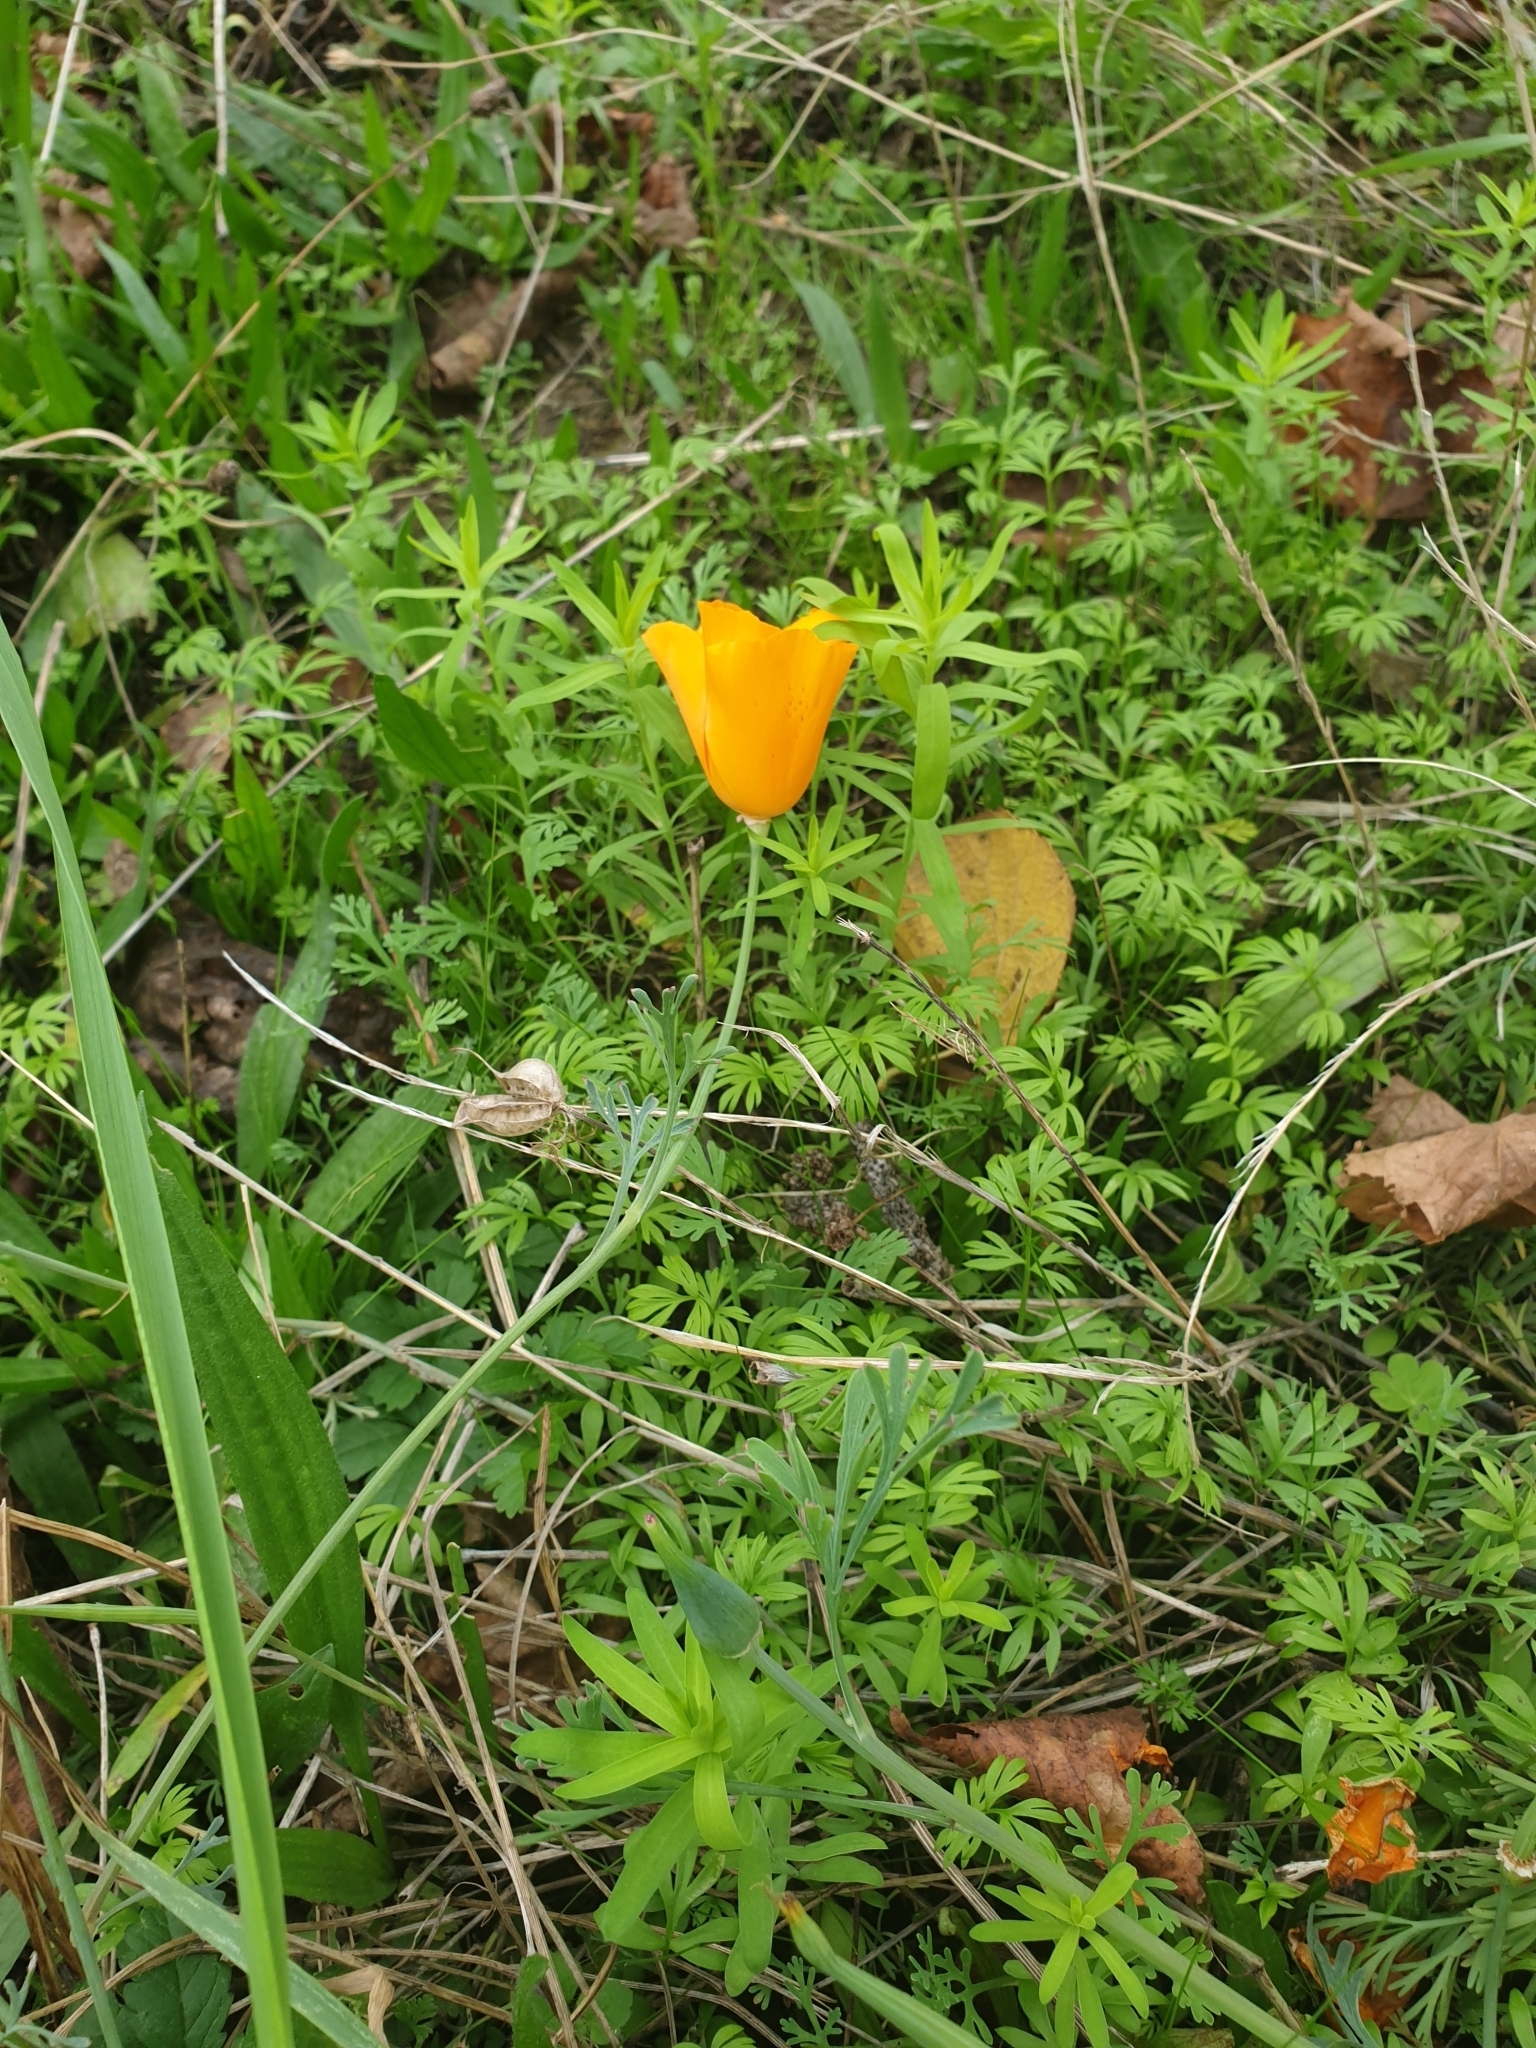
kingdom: Plantae
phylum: Tracheophyta
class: Magnoliopsida
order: Ranunculales
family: Papaveraceae
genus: Eschscholzia
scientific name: Eschscholzia californica
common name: California poppy
